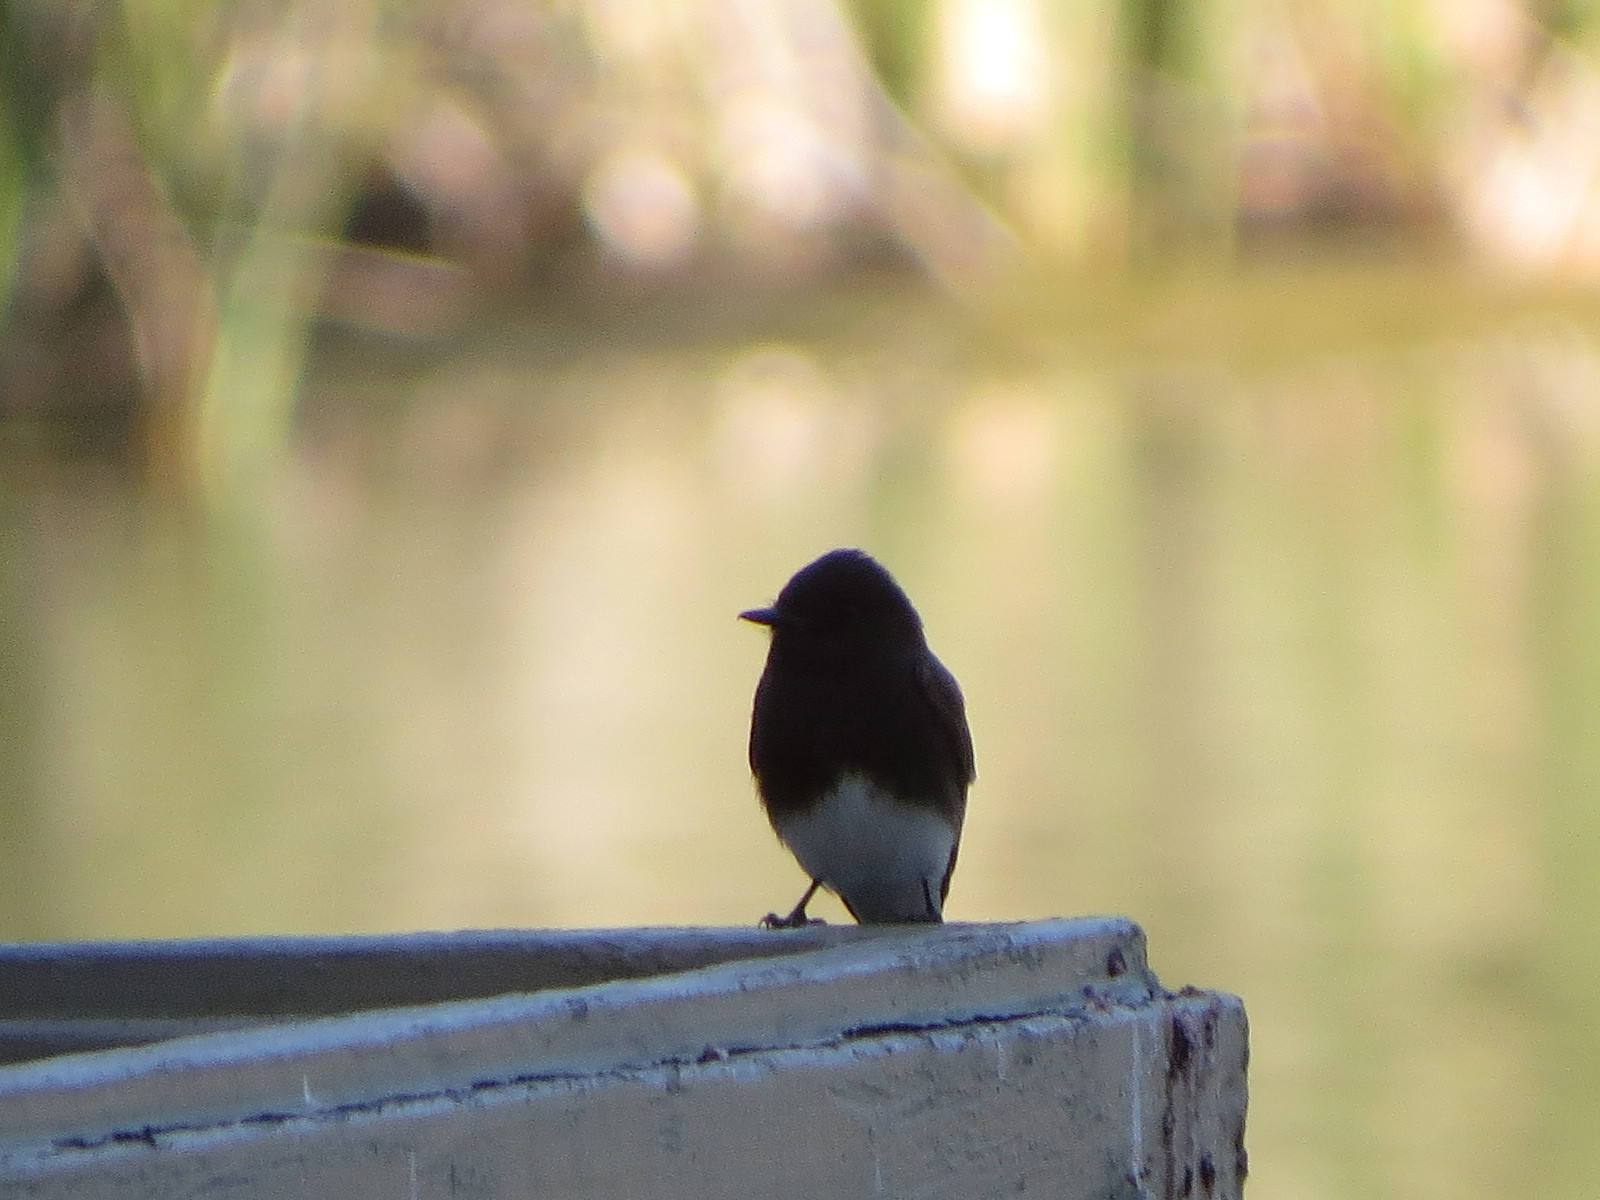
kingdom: Animalia
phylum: Chordata
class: Aves
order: Passeriformes
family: Tyrannidae
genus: Sayornis
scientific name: Sayornis nigricans
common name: Black phoebe
